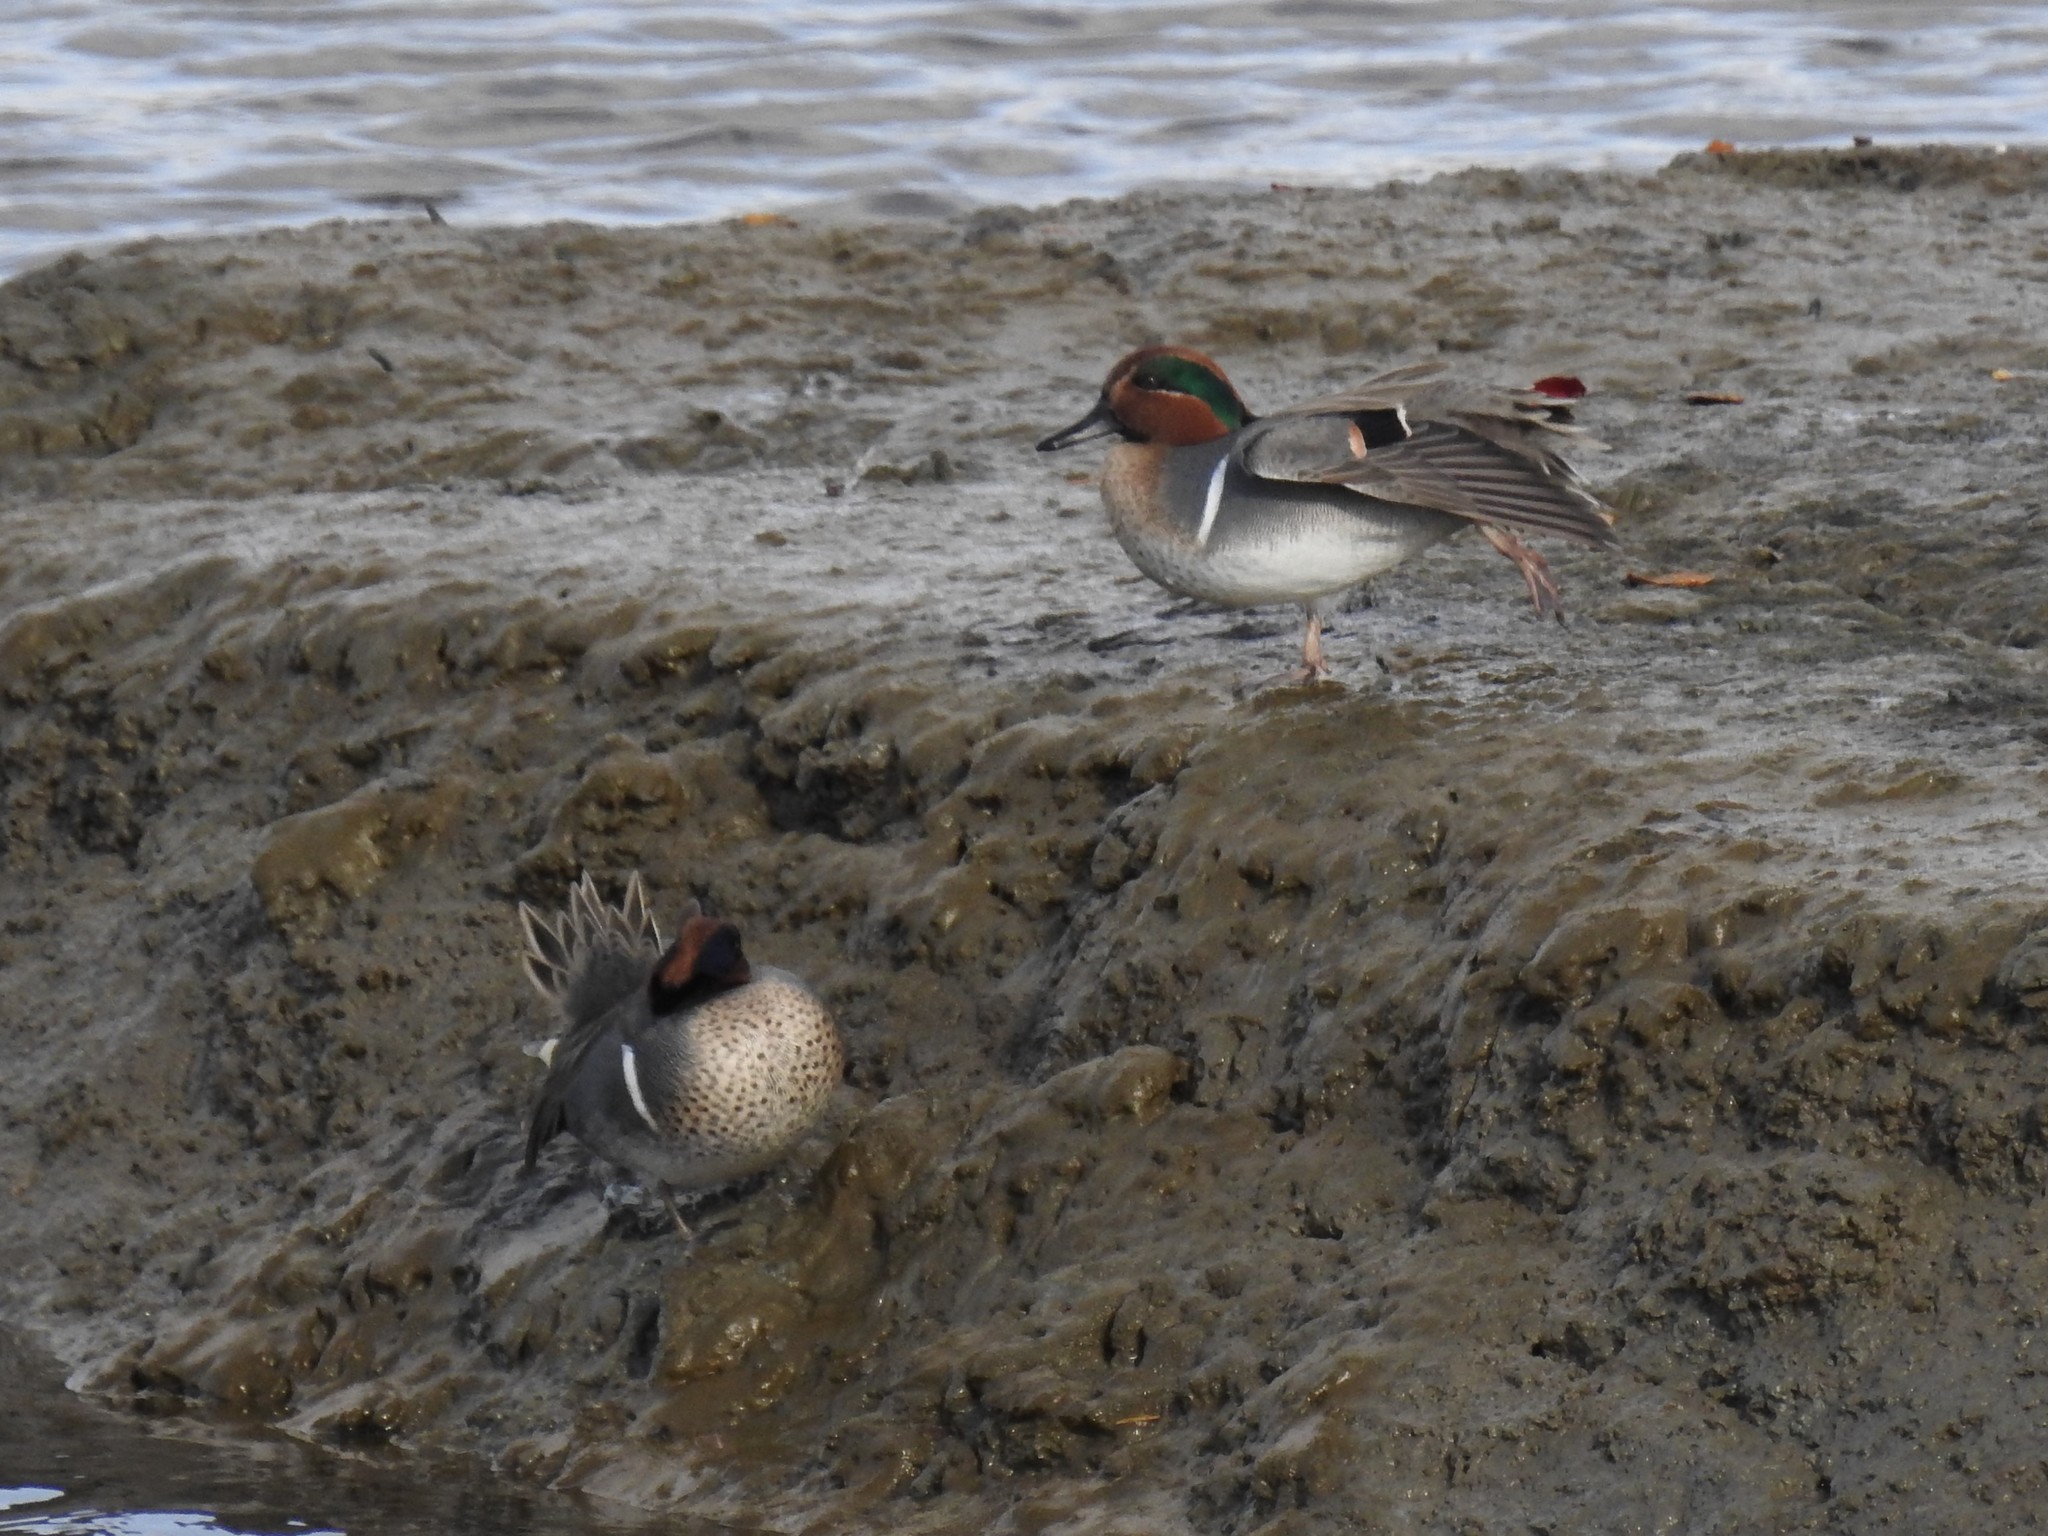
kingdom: Animalia
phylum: Chordata
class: Aves
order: Anseriformes
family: Anatidae
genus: Anas
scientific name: Anas crecca
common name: Eurasian teal
